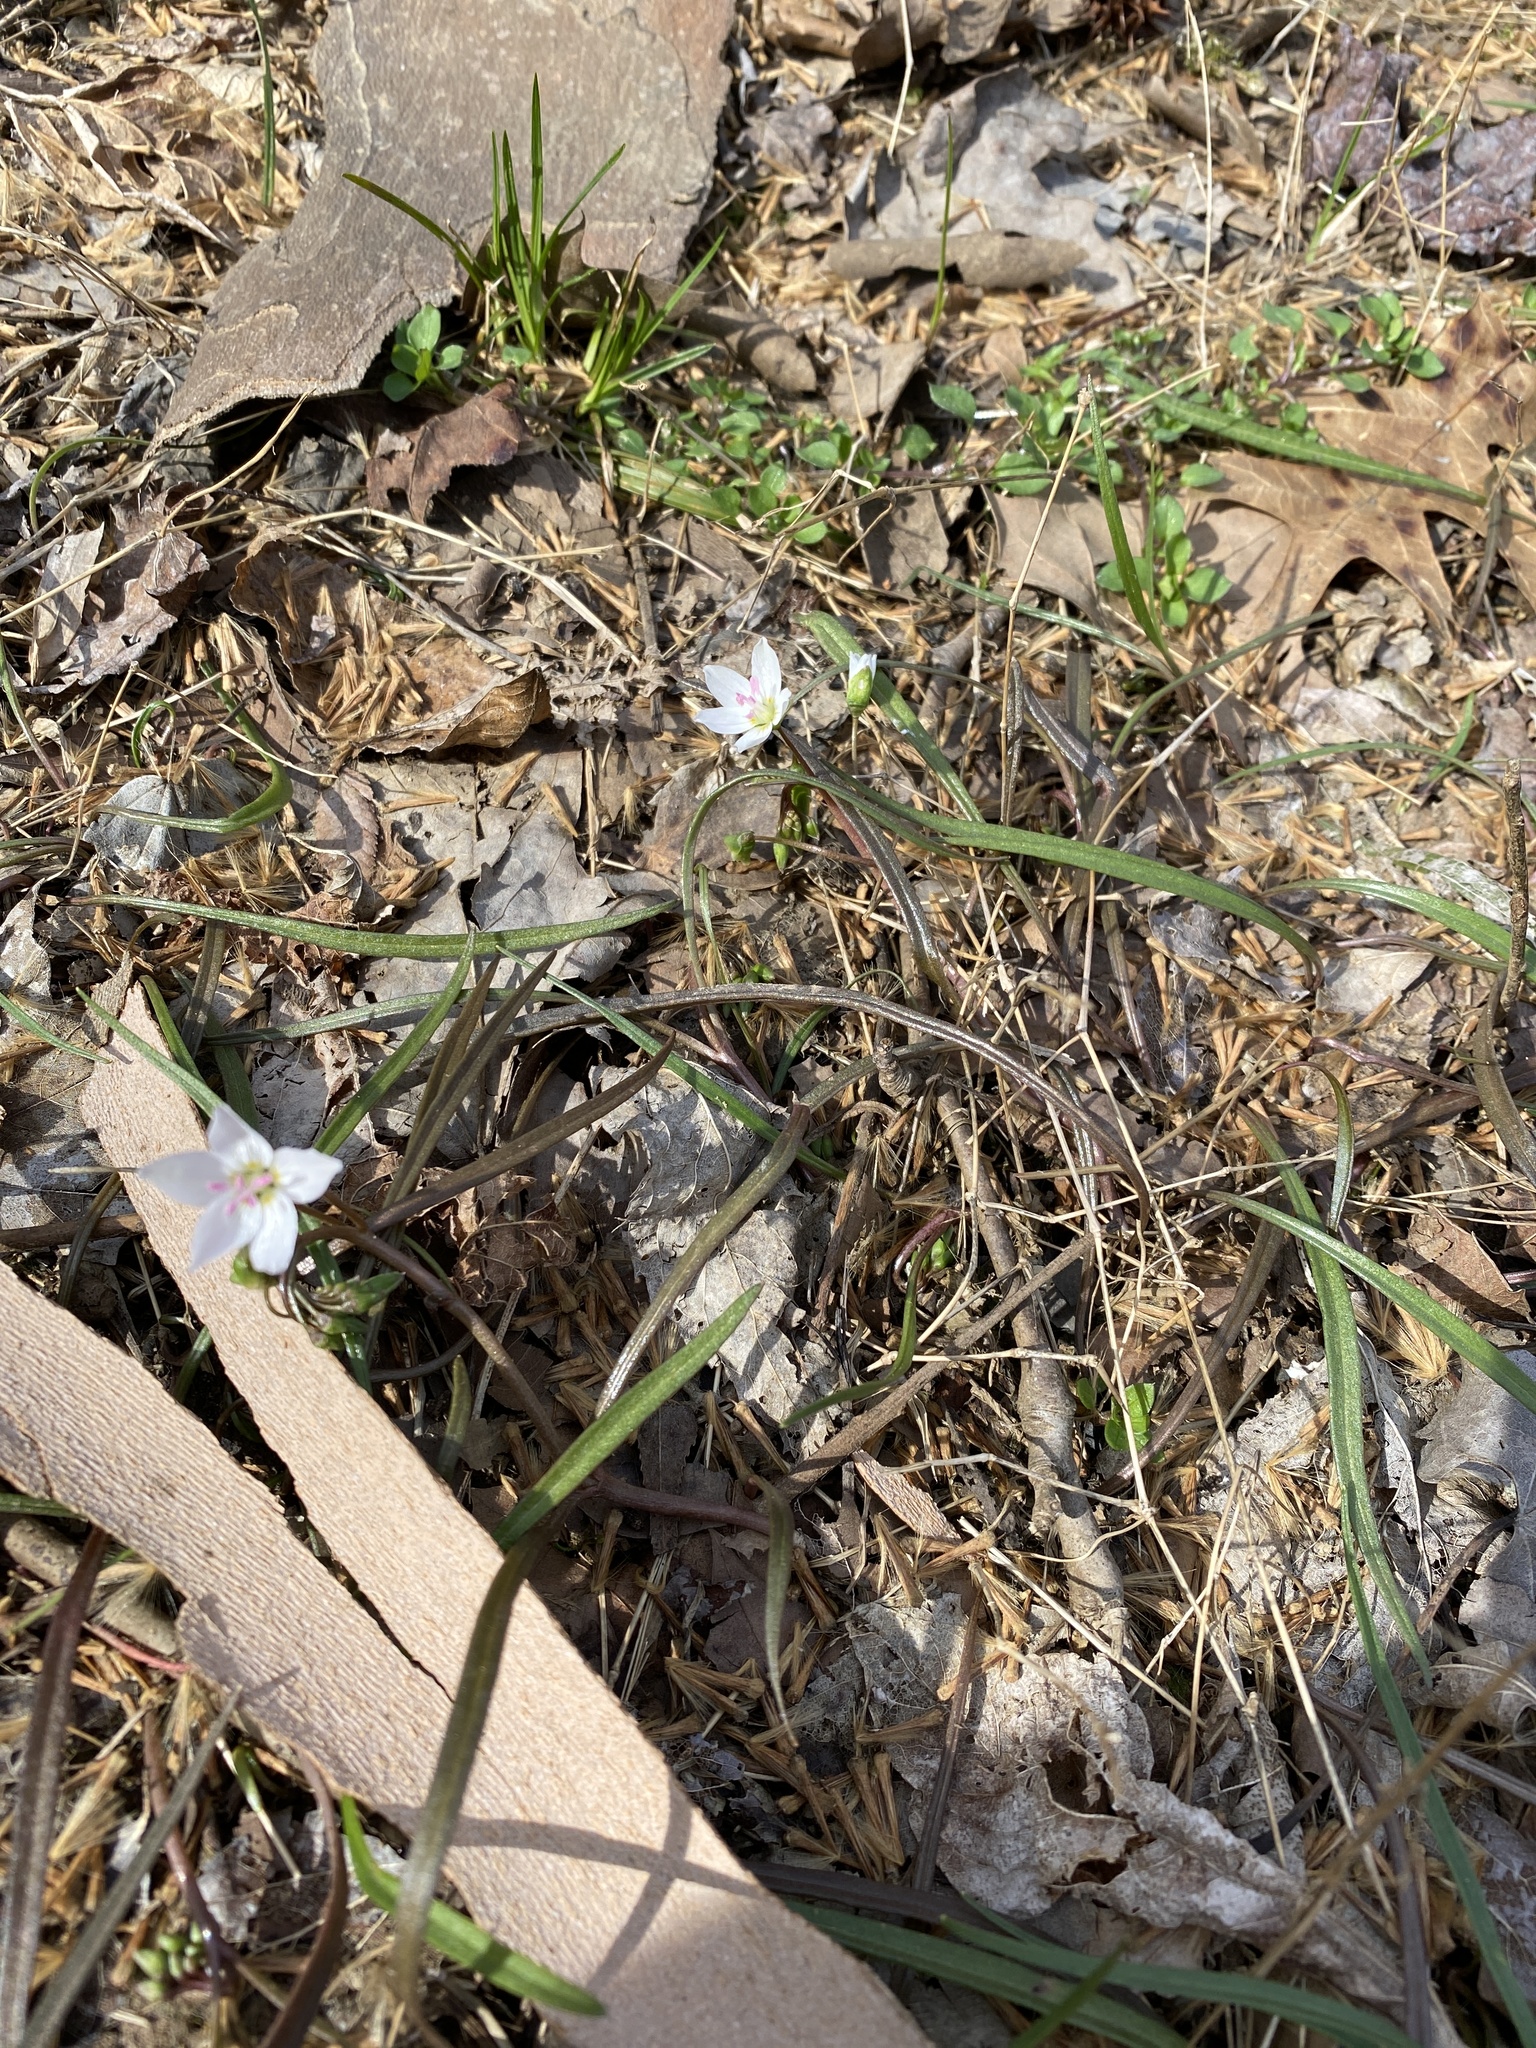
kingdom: Plantae
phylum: Tracheophyta
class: Magnoliopsida
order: Caryophyllales
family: Montiaceae
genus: Claytonia
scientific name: Claytonia virginica
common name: Virginia springbeauty
